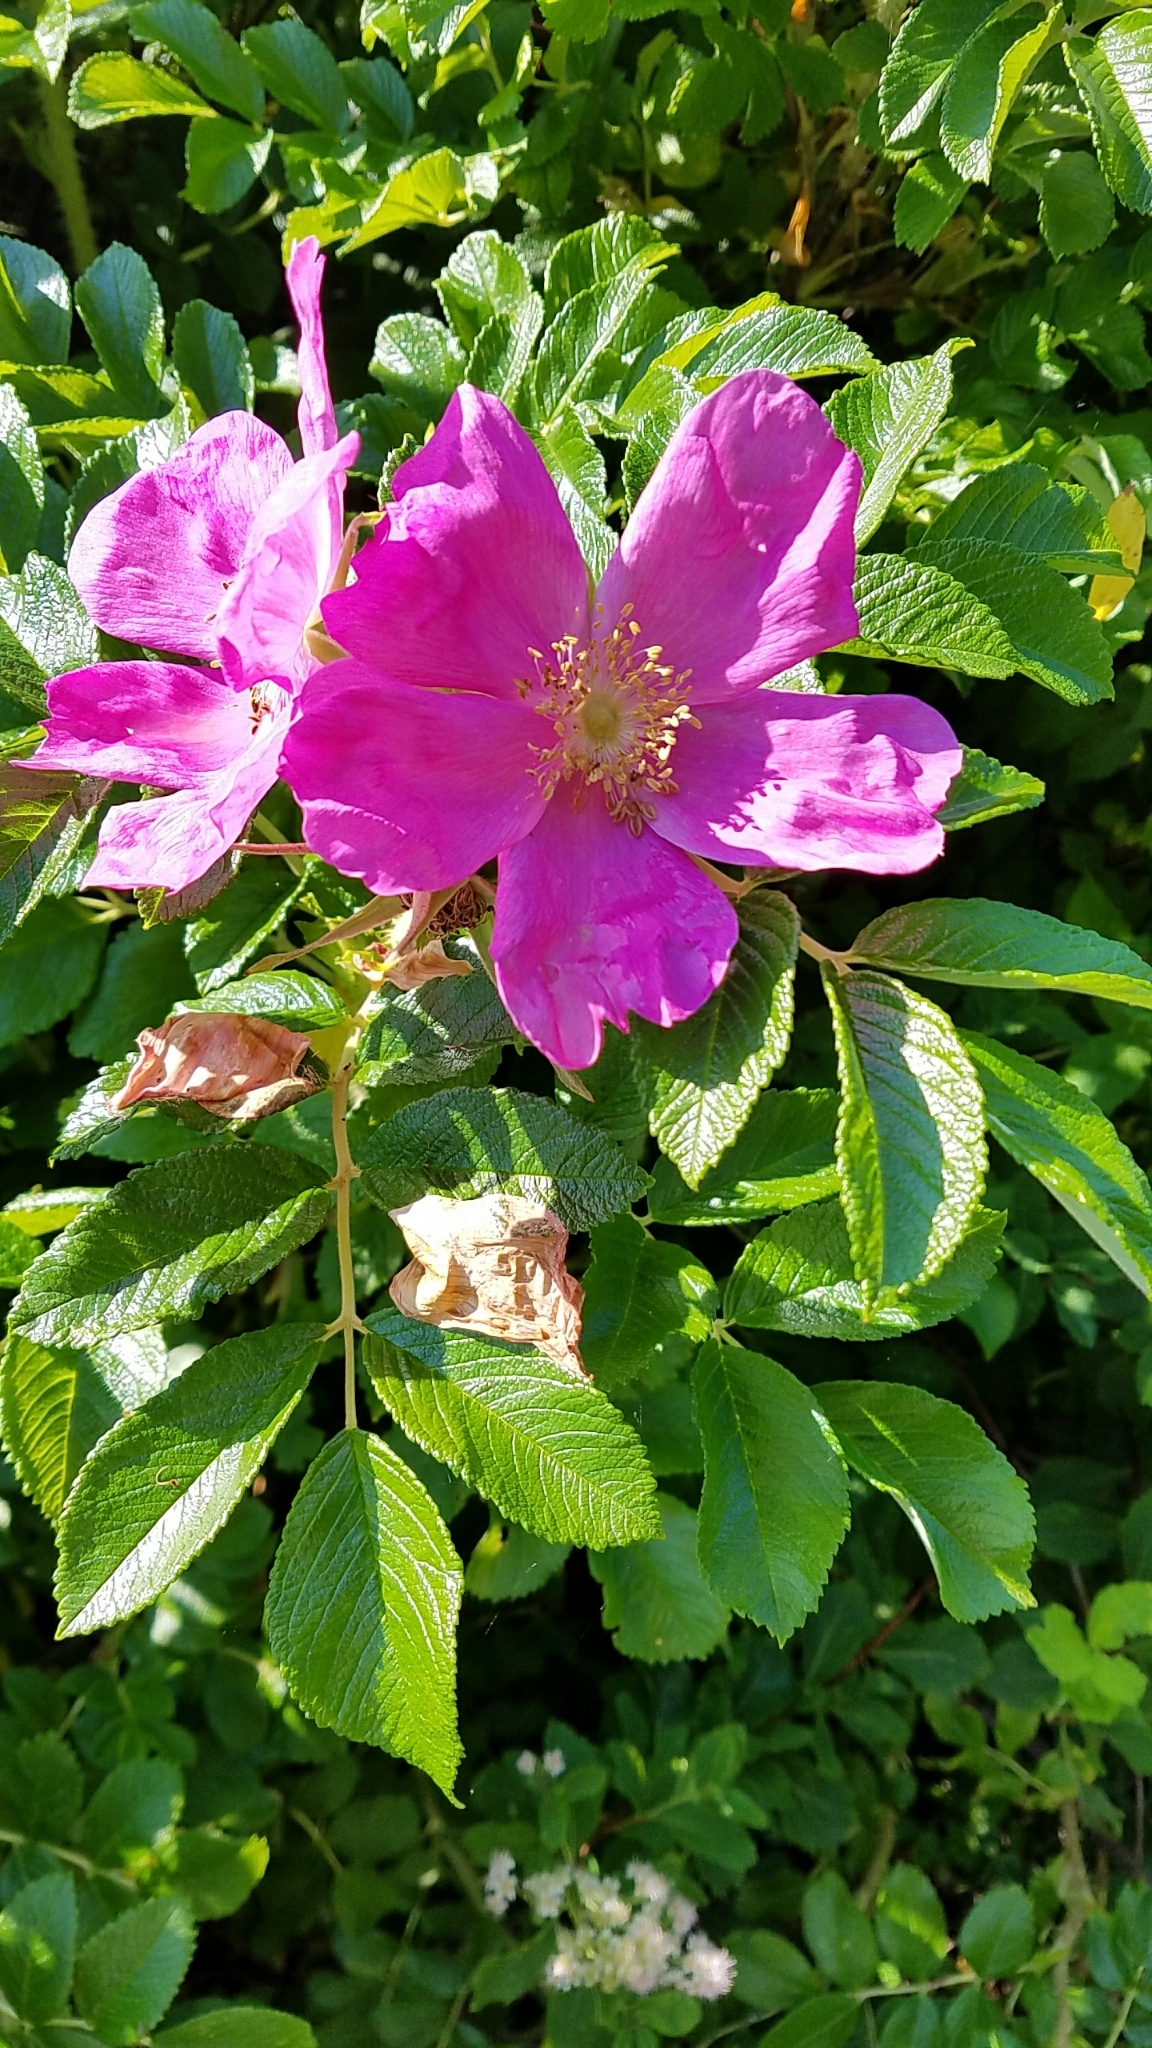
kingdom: Plantae
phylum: Tracheophyta
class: Magnoliopsida
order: Rosales
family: Rosaceae
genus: Rosa
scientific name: Rosa rugosa
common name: Japanese rose
